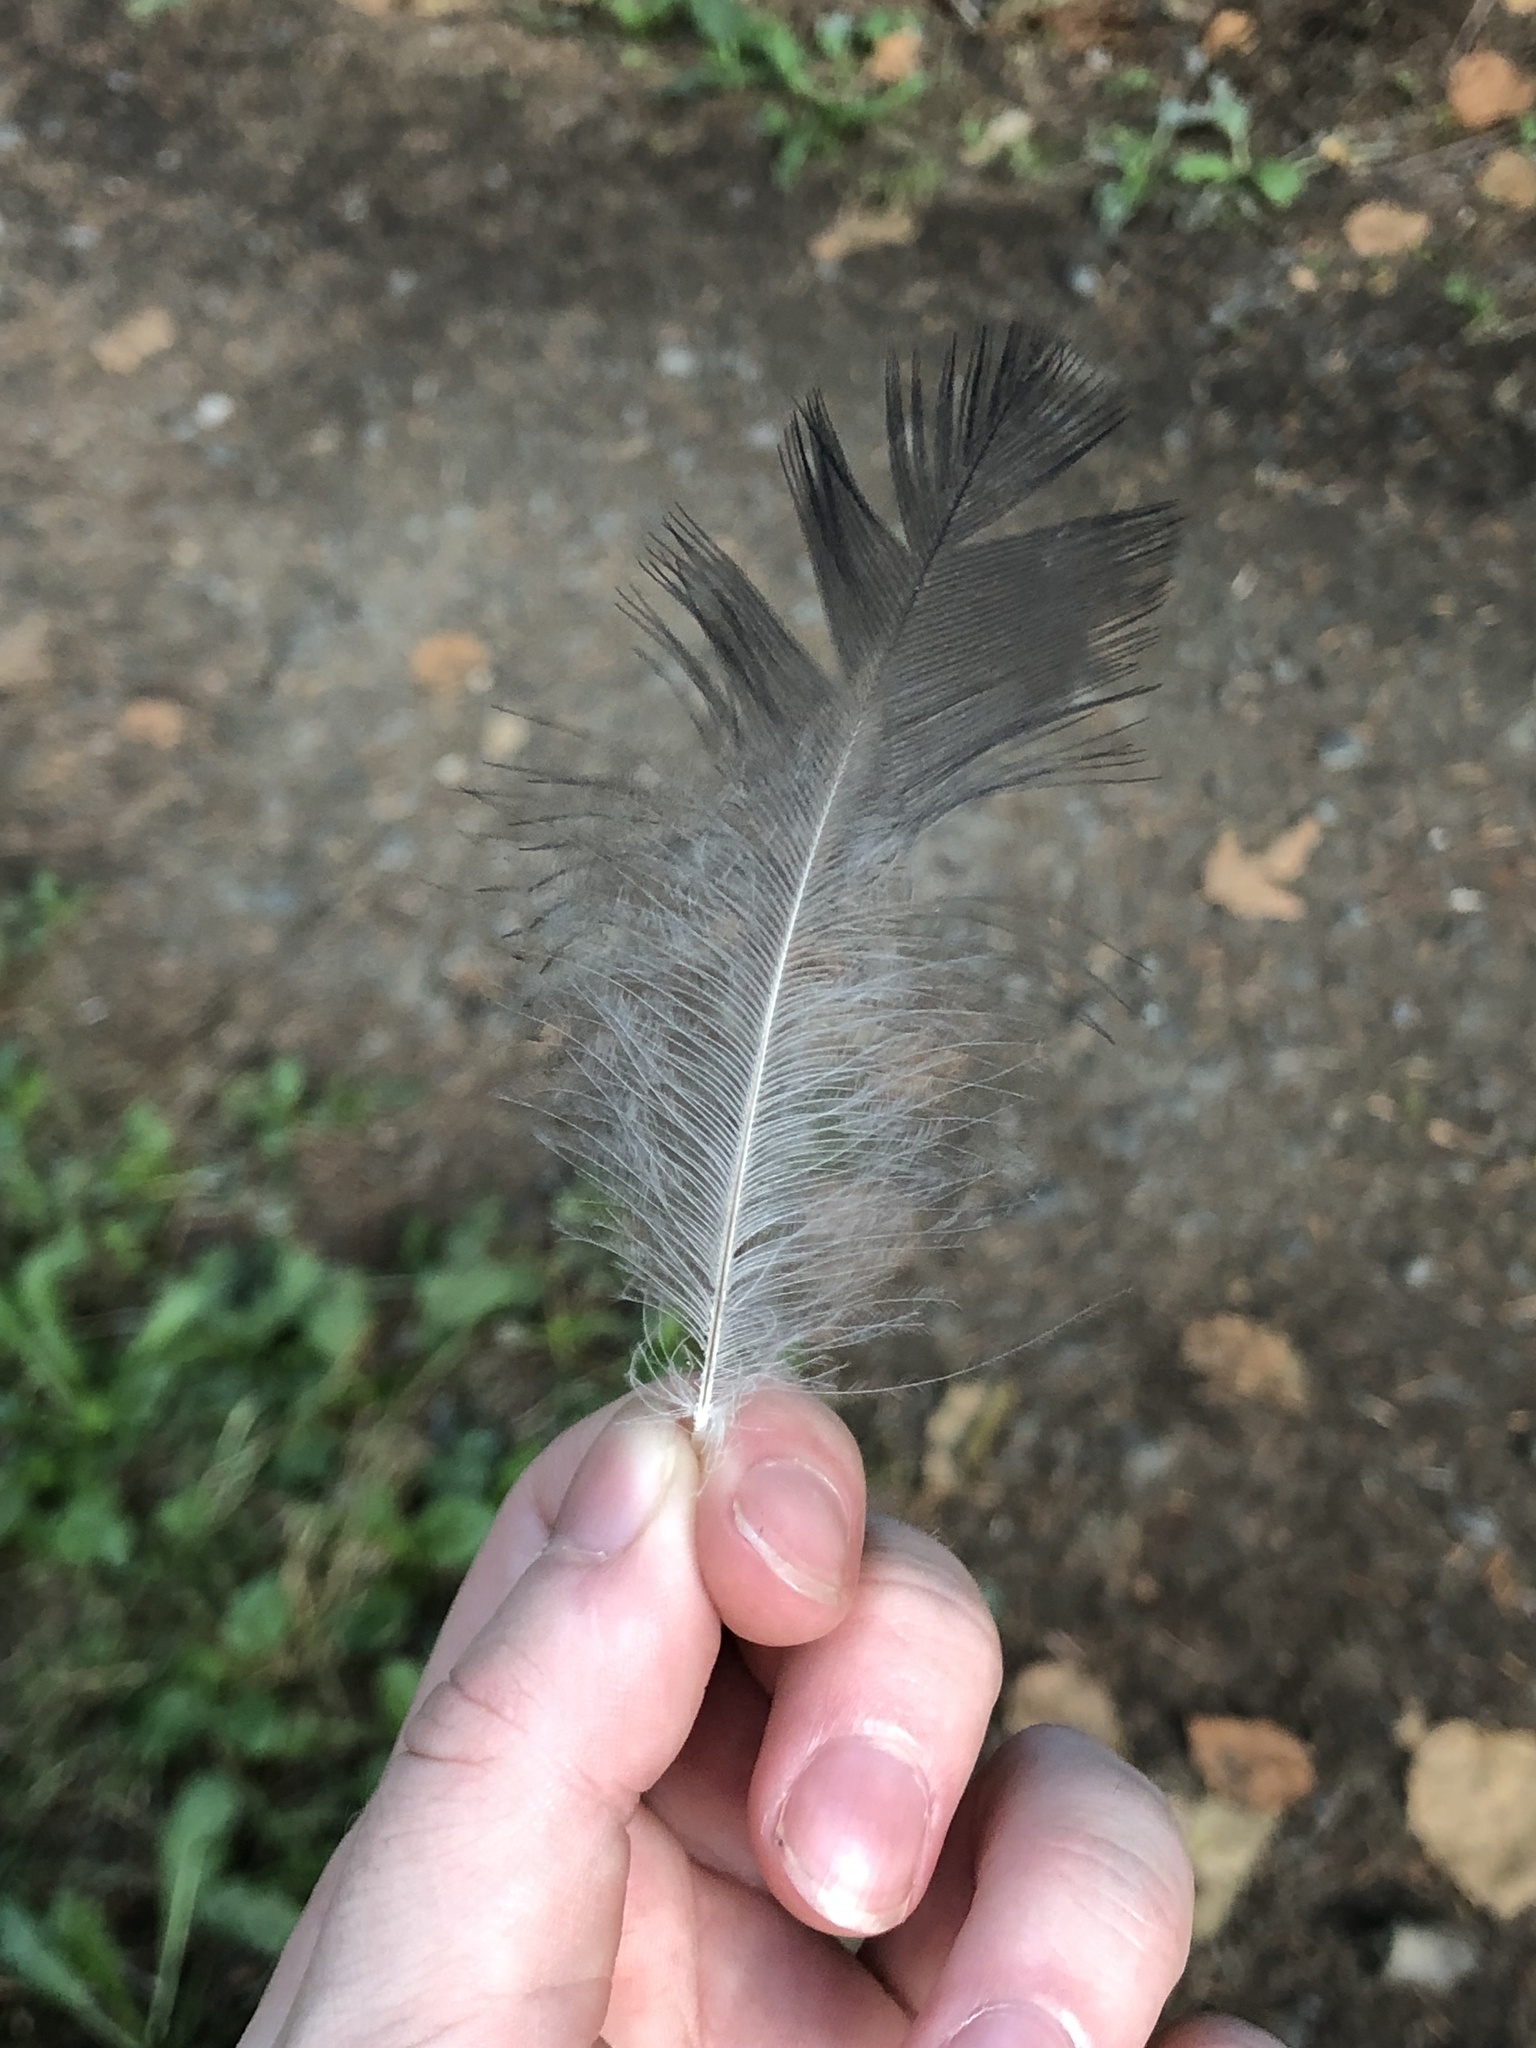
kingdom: Animalia
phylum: Chordata
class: Aves
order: Passeriformes
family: Corvidae
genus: Corvus
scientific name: Corvus corax
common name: Common raven
